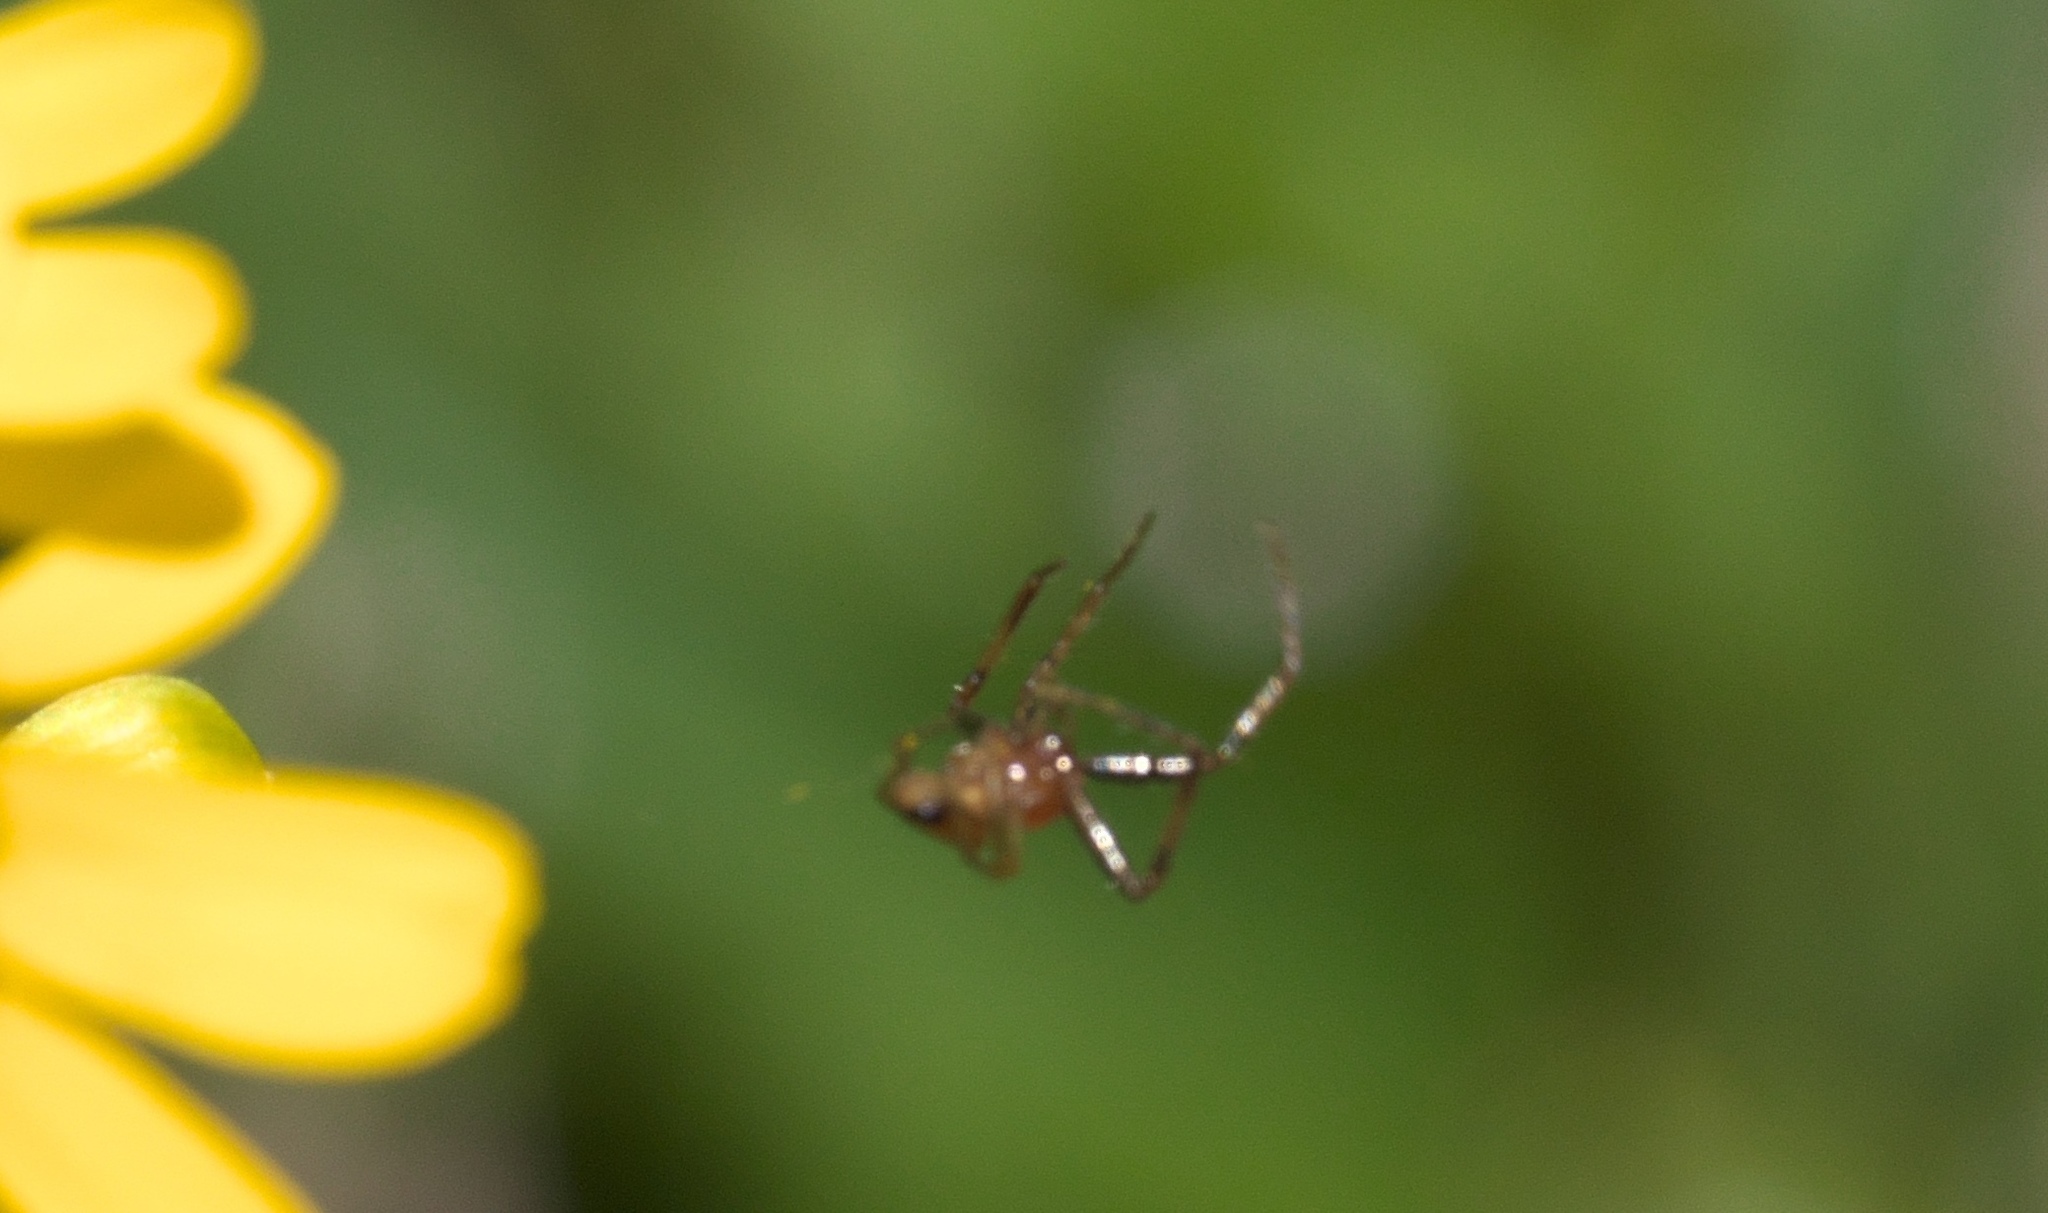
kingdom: Animalia
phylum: Arthropoda
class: Arachnida
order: Araneae
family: Thomisidae
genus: Synema
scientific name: Synema parvulum
